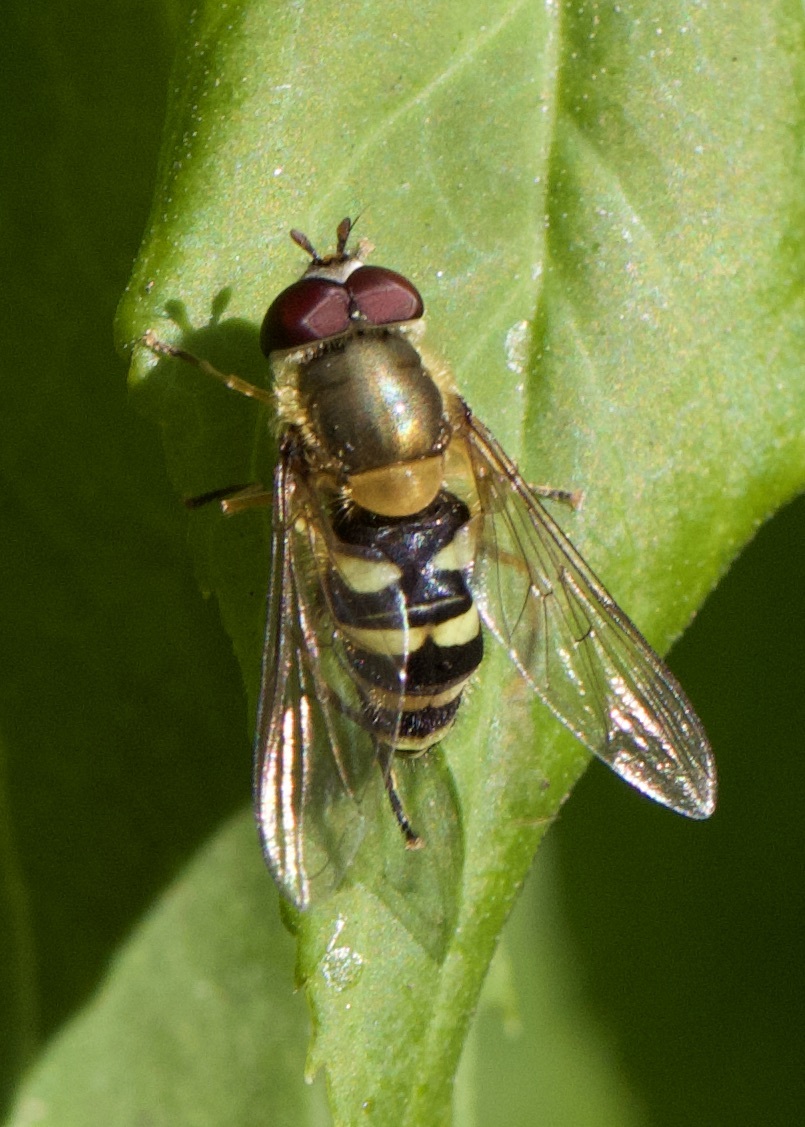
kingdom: Animalia
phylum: Arthropoda
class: Insecta
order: Diptera
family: Syrphidae
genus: Syrphus
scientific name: Syrphus
